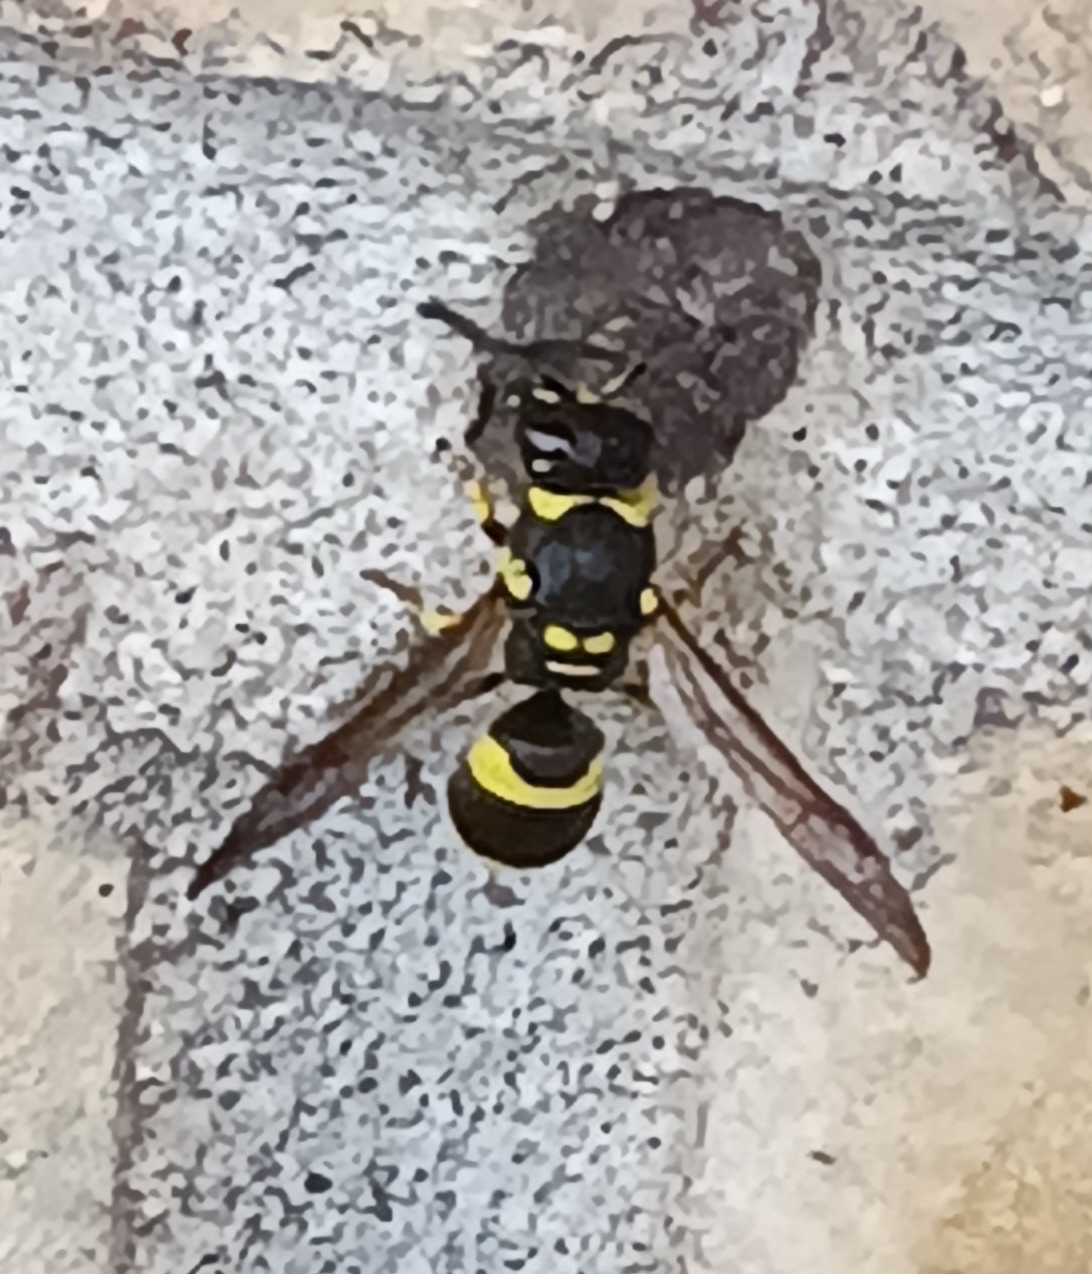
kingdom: Animalia
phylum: Arthropoda
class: Insecta
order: Hymenoptera
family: Vespidae
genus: Ancistrocerus
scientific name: Ancistrocerus gazella
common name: European tube wasp
